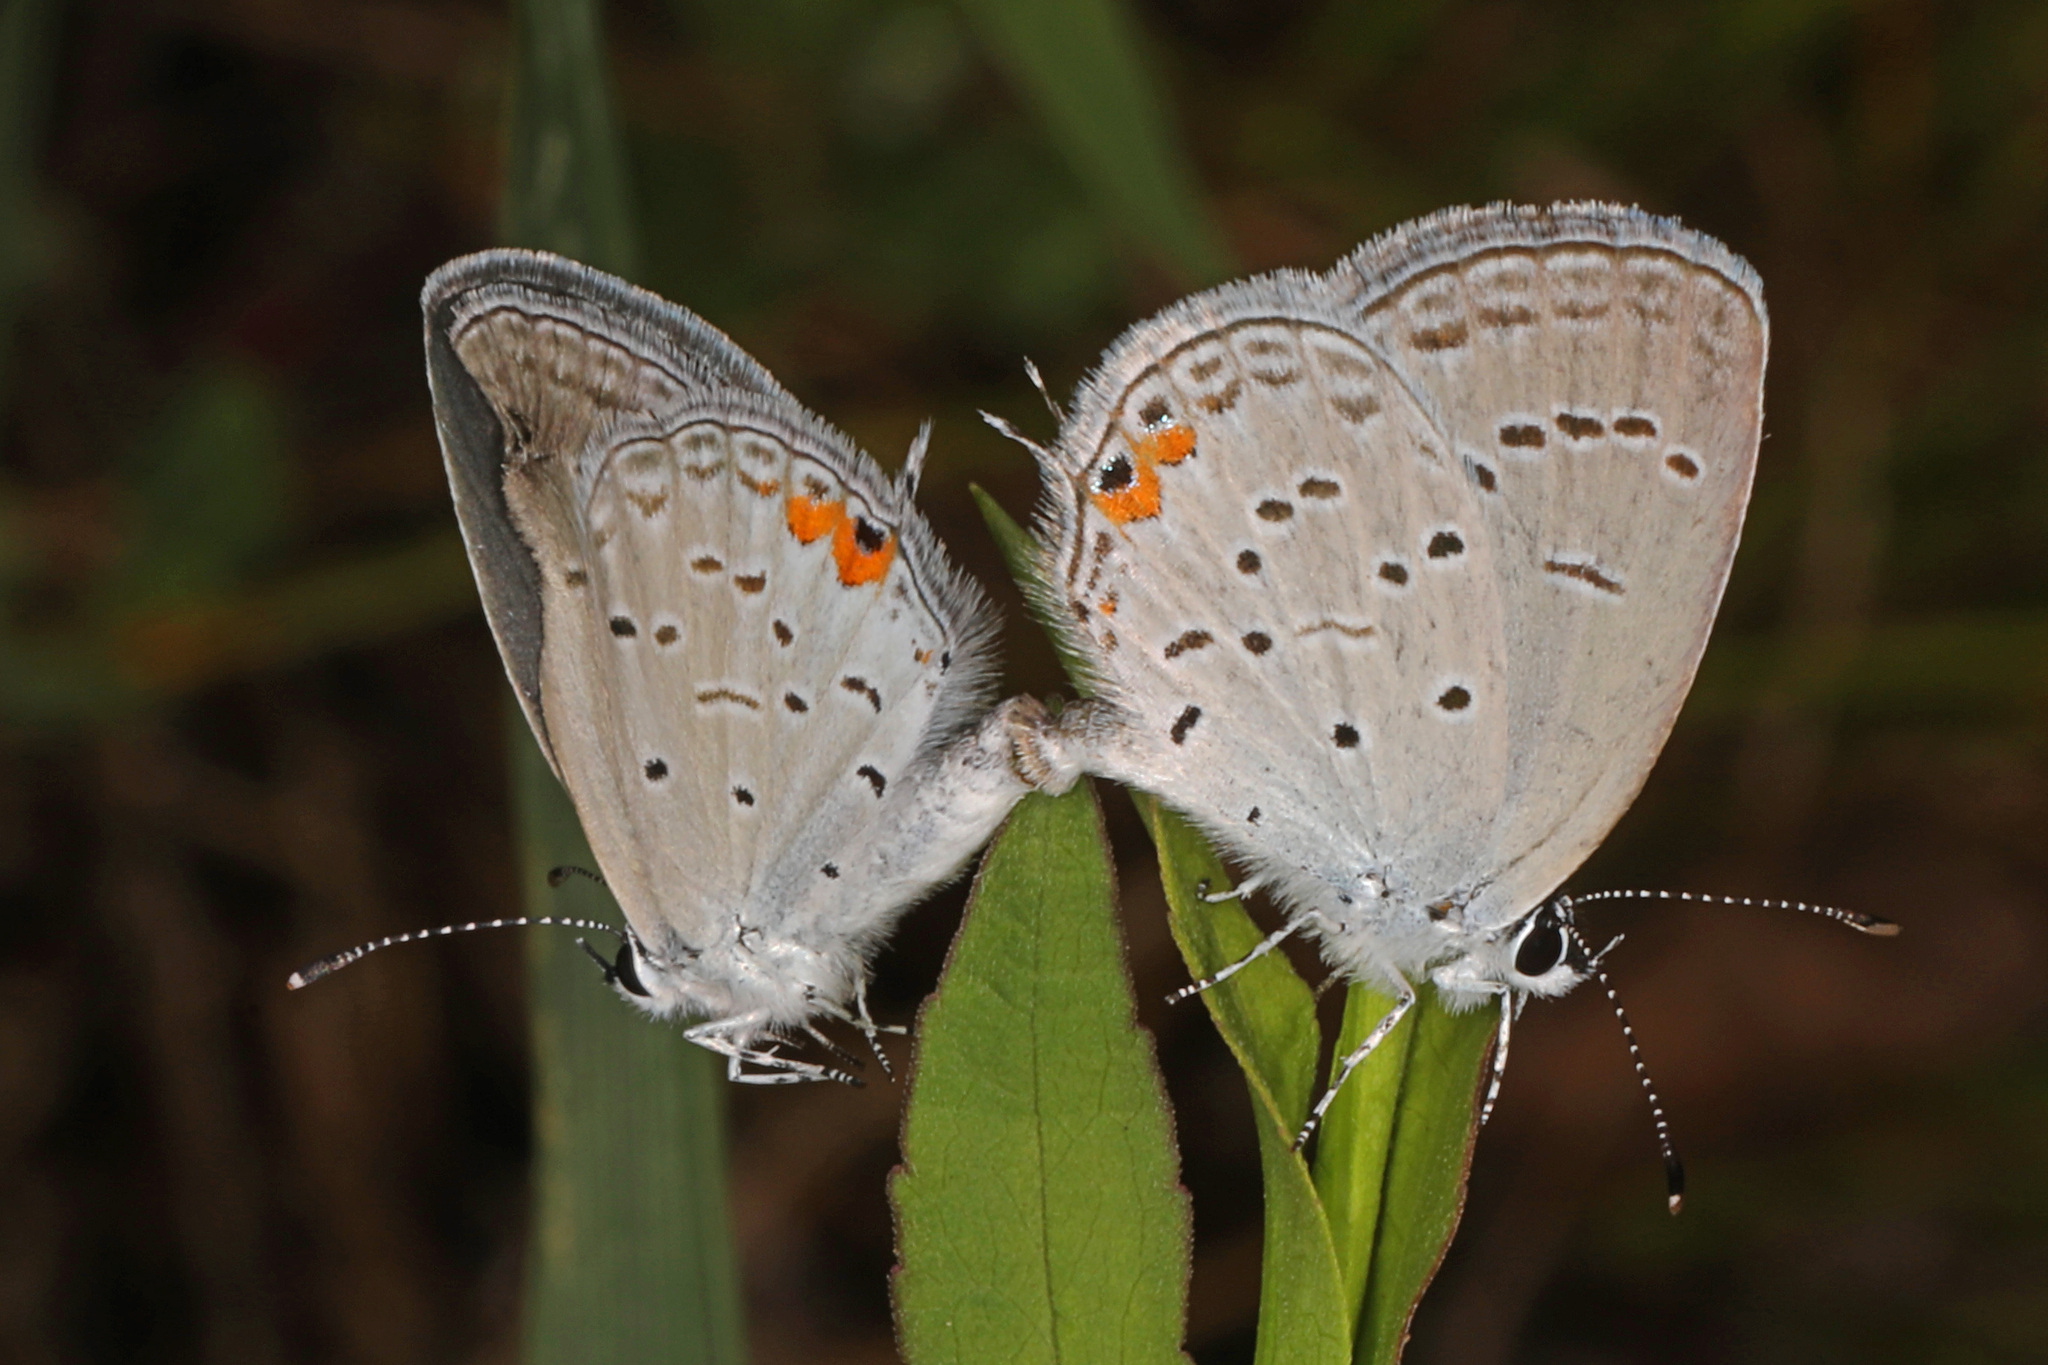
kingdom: Animalia
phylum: Arthropoda
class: Insecta
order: Lepidoptera
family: Lycaenidae
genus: Elkalyce
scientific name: Elkalyce comyntas
